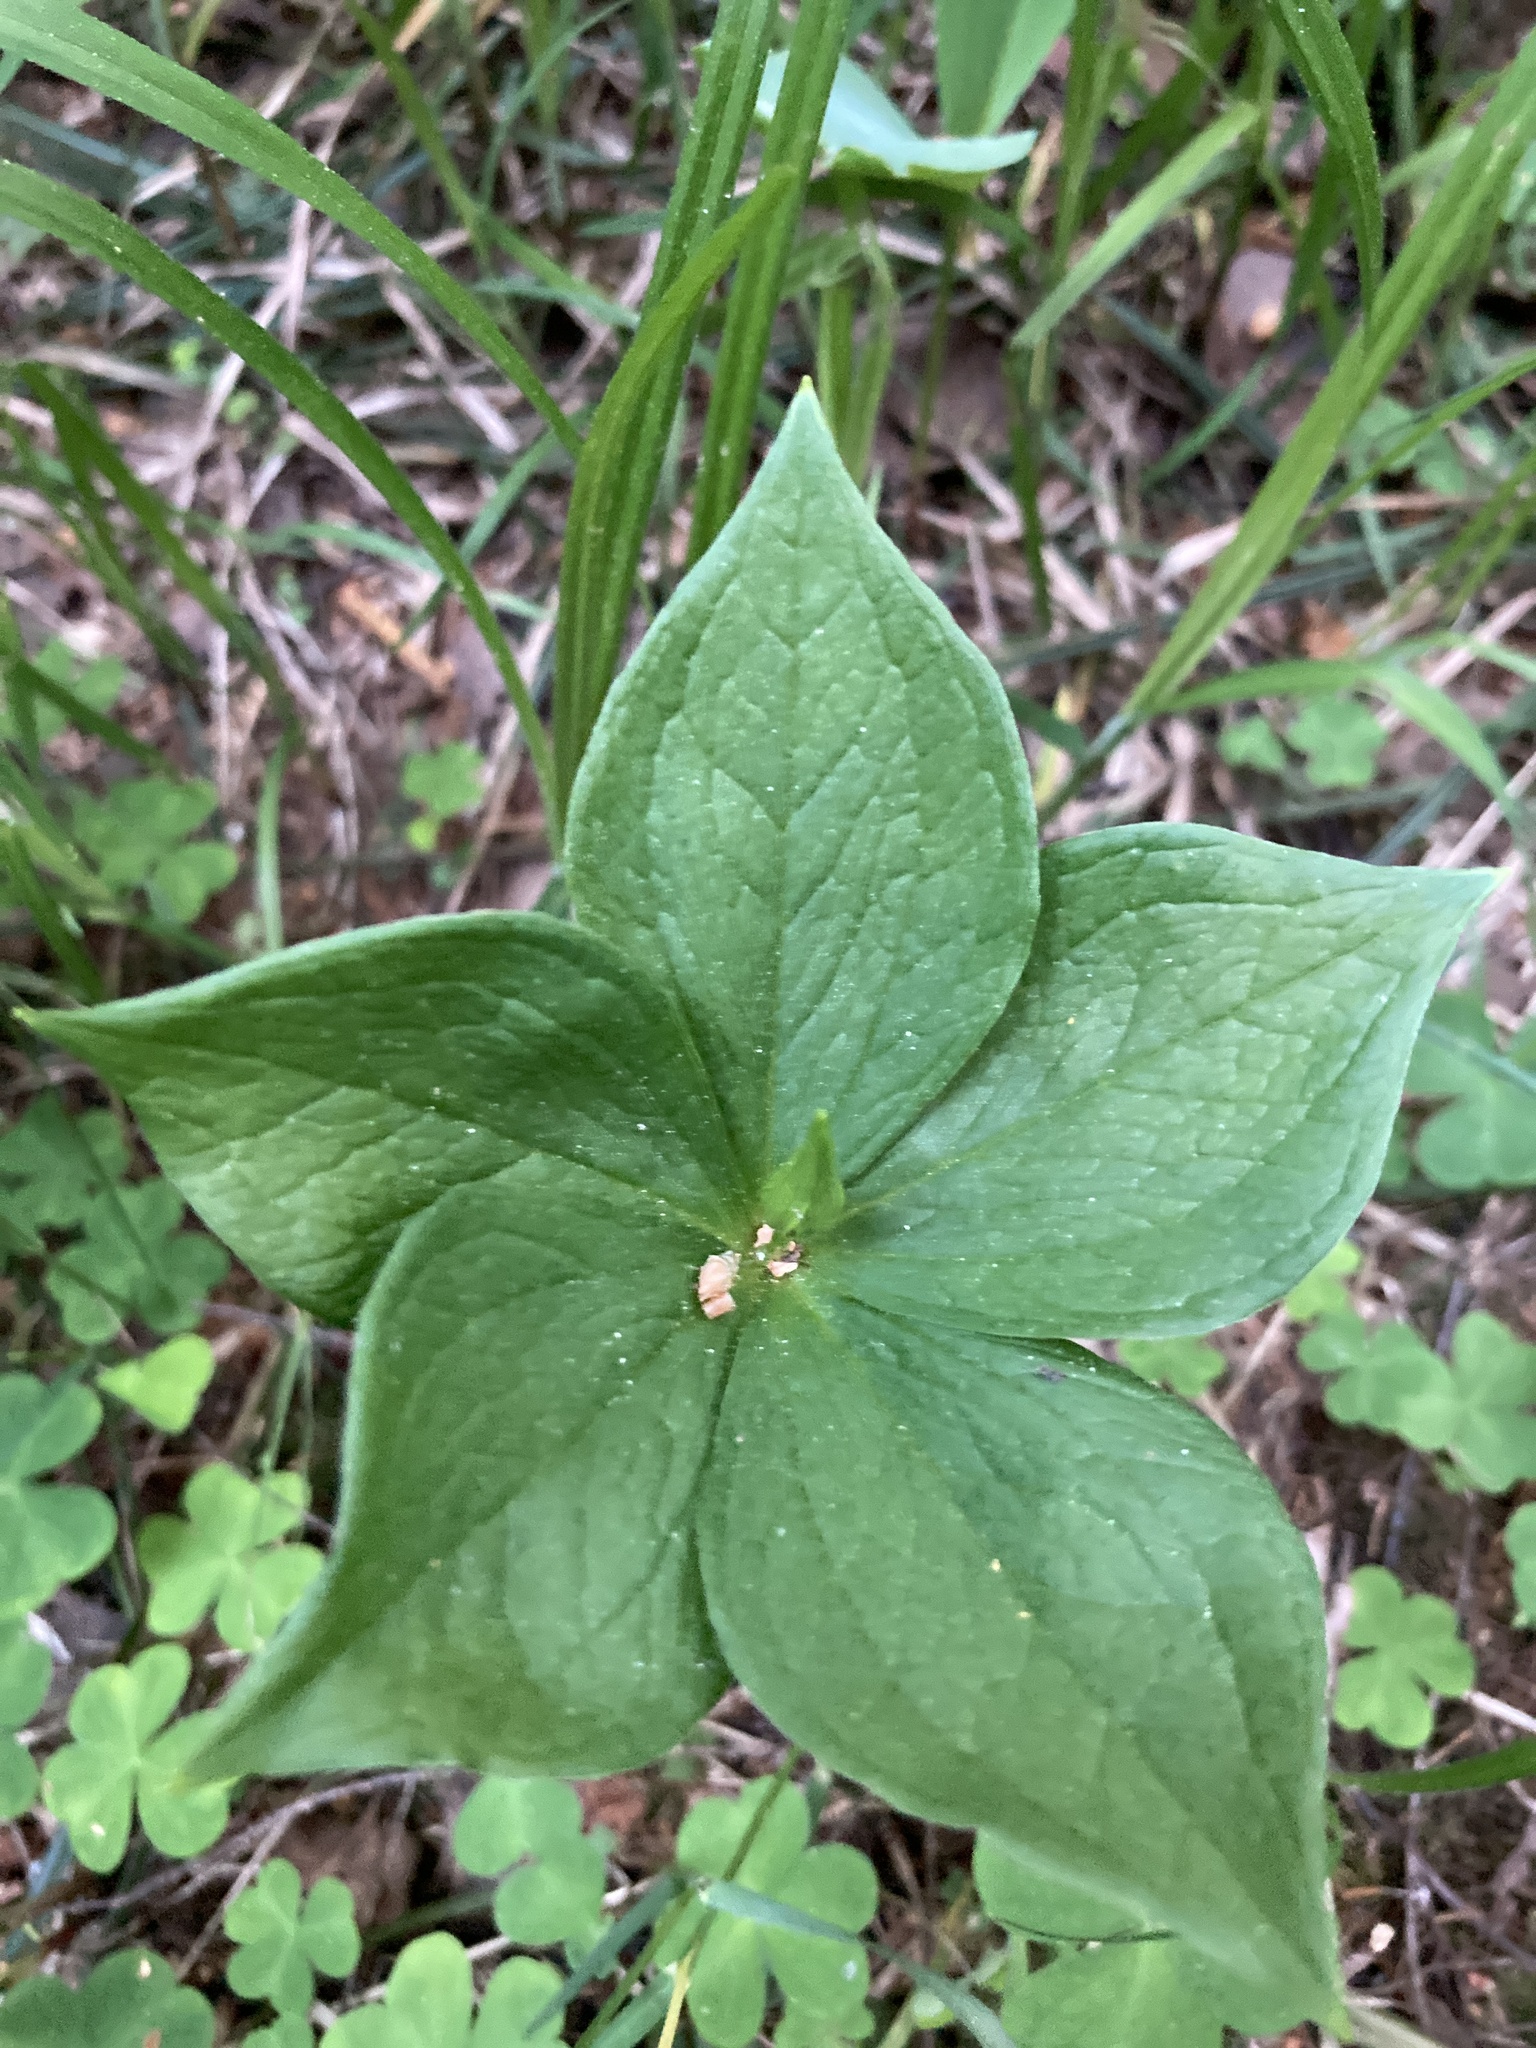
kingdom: Plantae
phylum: Tracheophyta
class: Liliopsida
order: Liliales
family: Melanthiaceae
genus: Paris
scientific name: Paris quadrifolia
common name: Herb-paris
